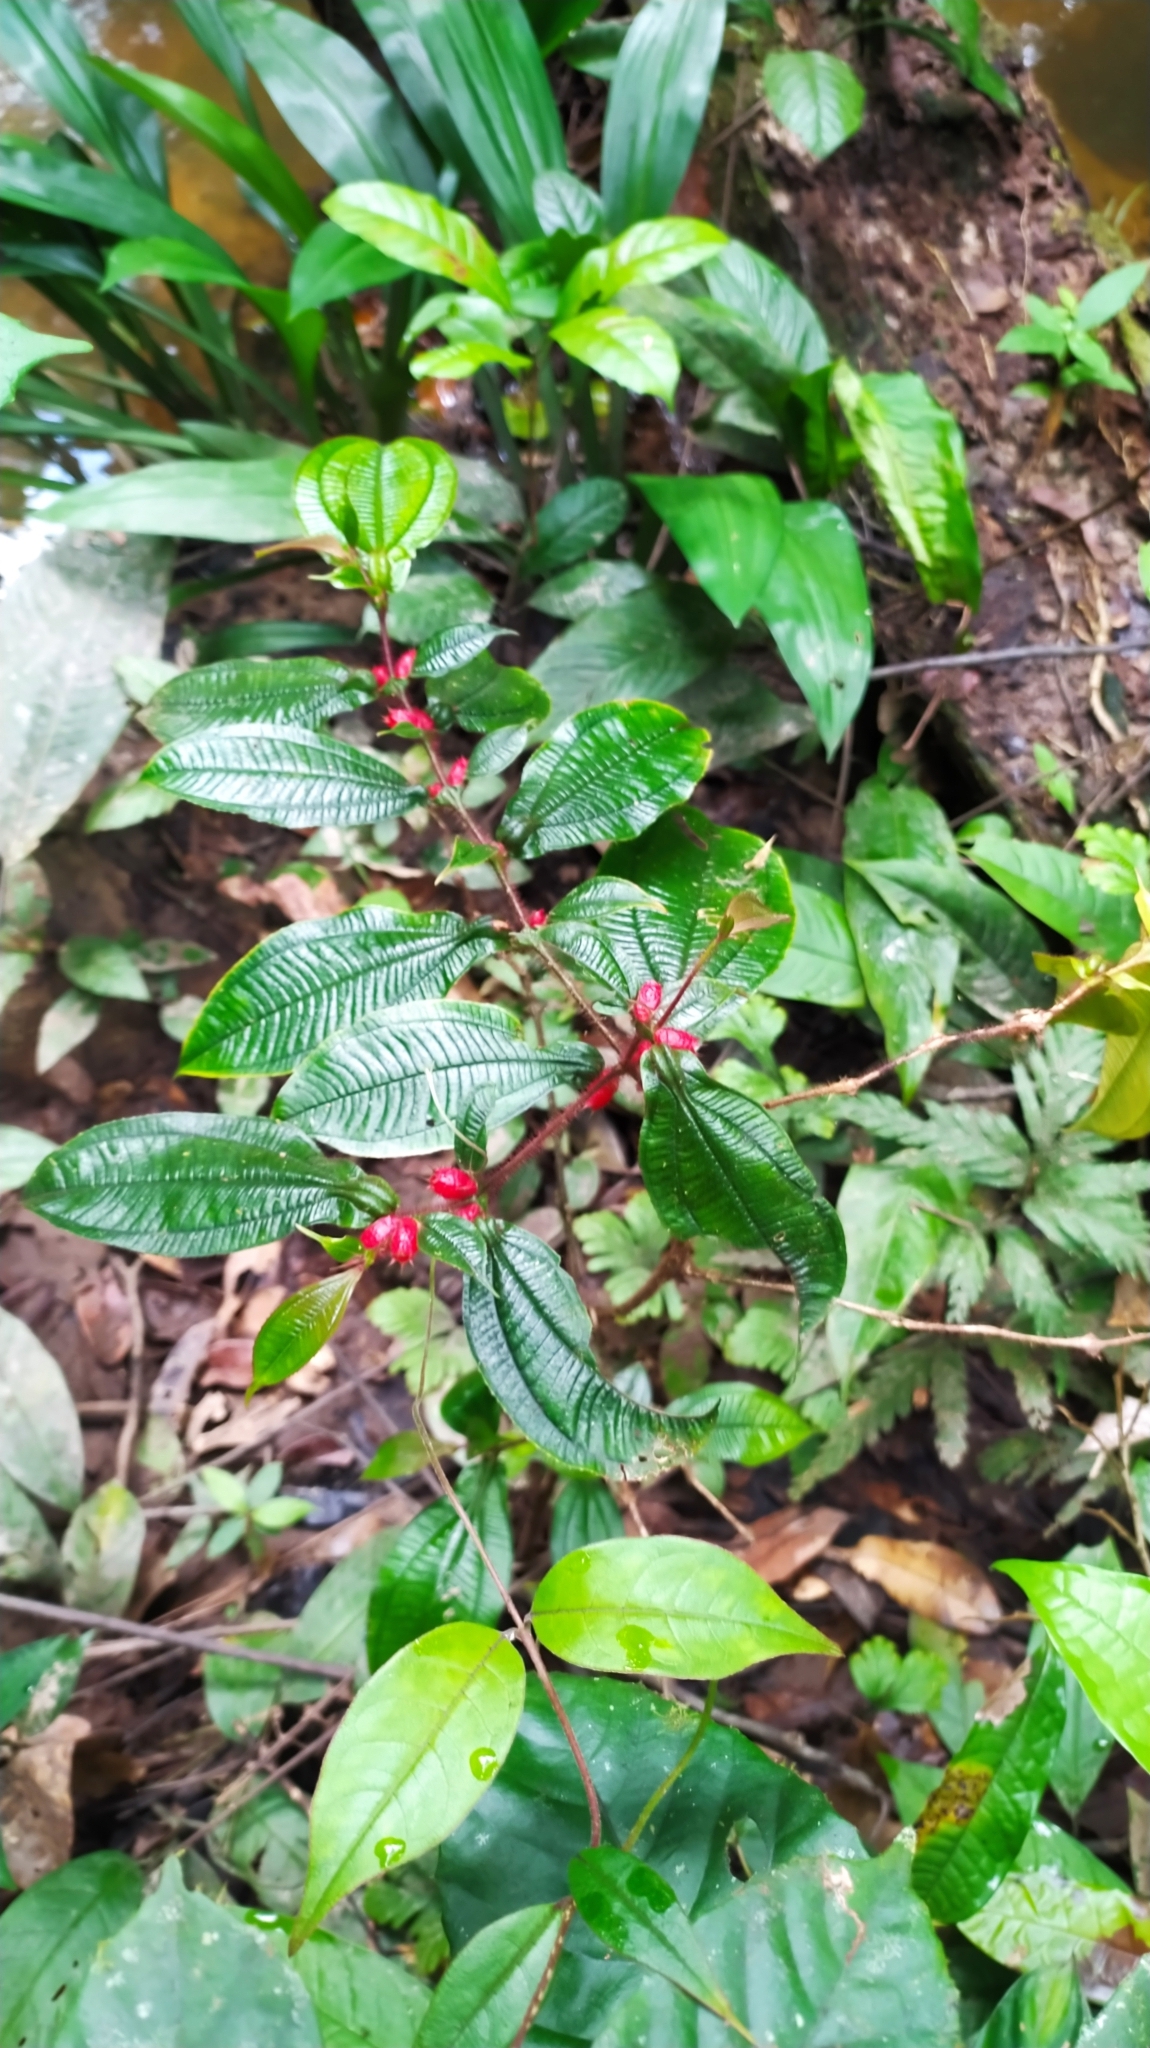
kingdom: Plantae
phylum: Tracheophyta
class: Magnoliopsida
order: Myrtales
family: Melastomataceae
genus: Miconia
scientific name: Miconia mayeta
